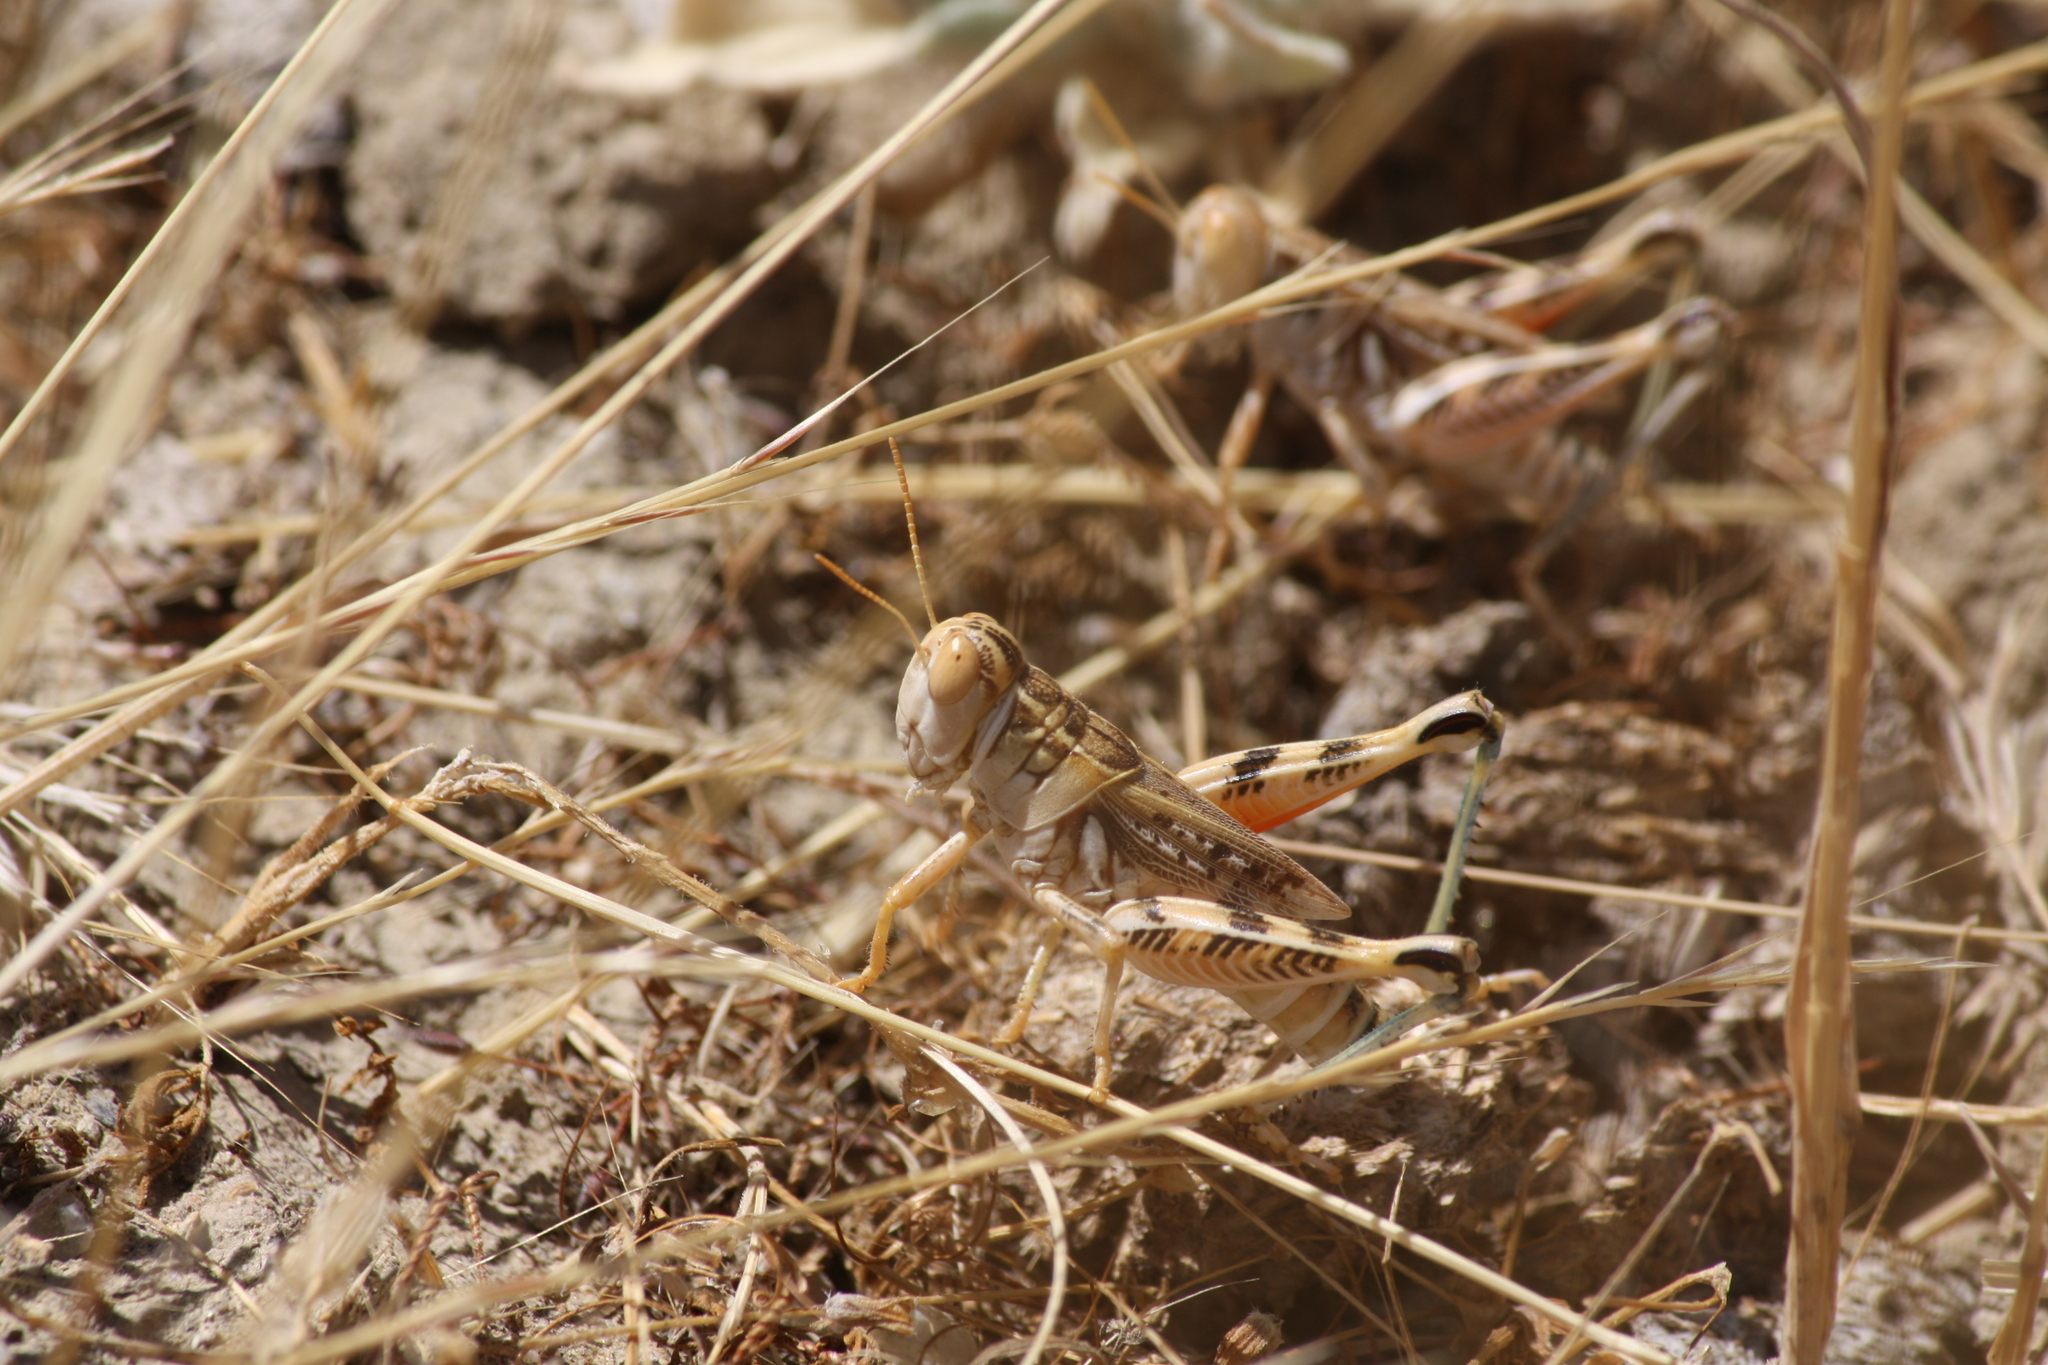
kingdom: Animalia
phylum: Arthropoda
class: Insecta
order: Orthoptera
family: Acrididae
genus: Oedaleonotus
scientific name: Oedaleonotus enigma
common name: Valley grasshopper
